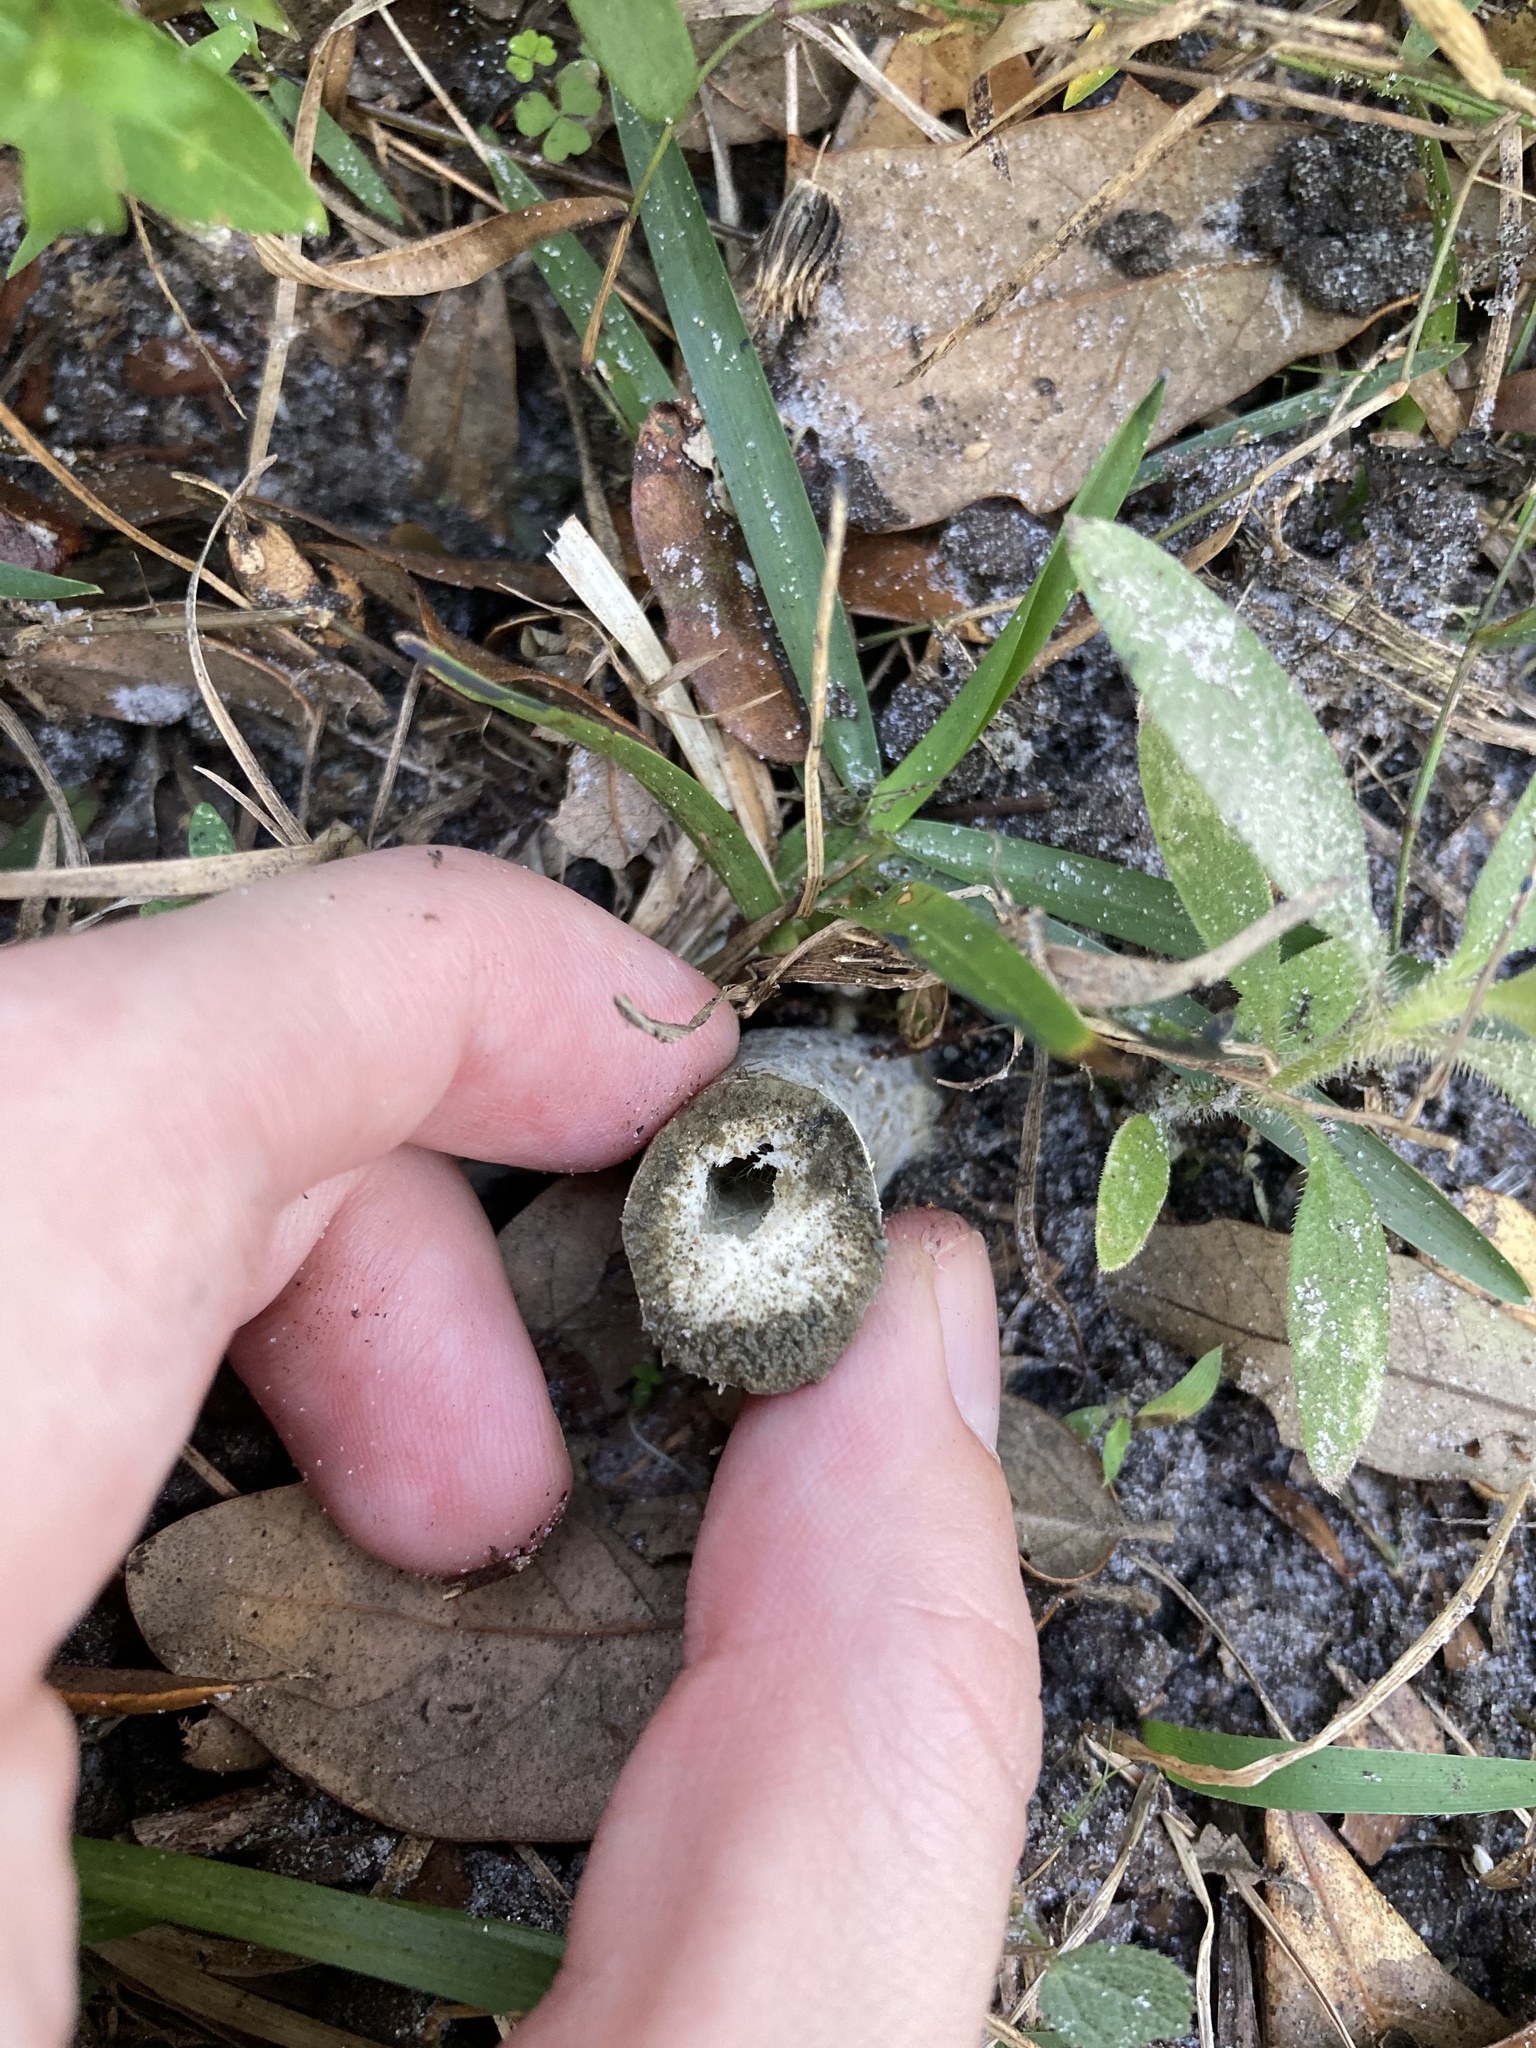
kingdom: Fungi
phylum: Basidiomycota
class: Agaricomycetes
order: Russulales
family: Russulaceae
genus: Lactarius
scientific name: Lactarius indigo
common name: Indigo milk cap
